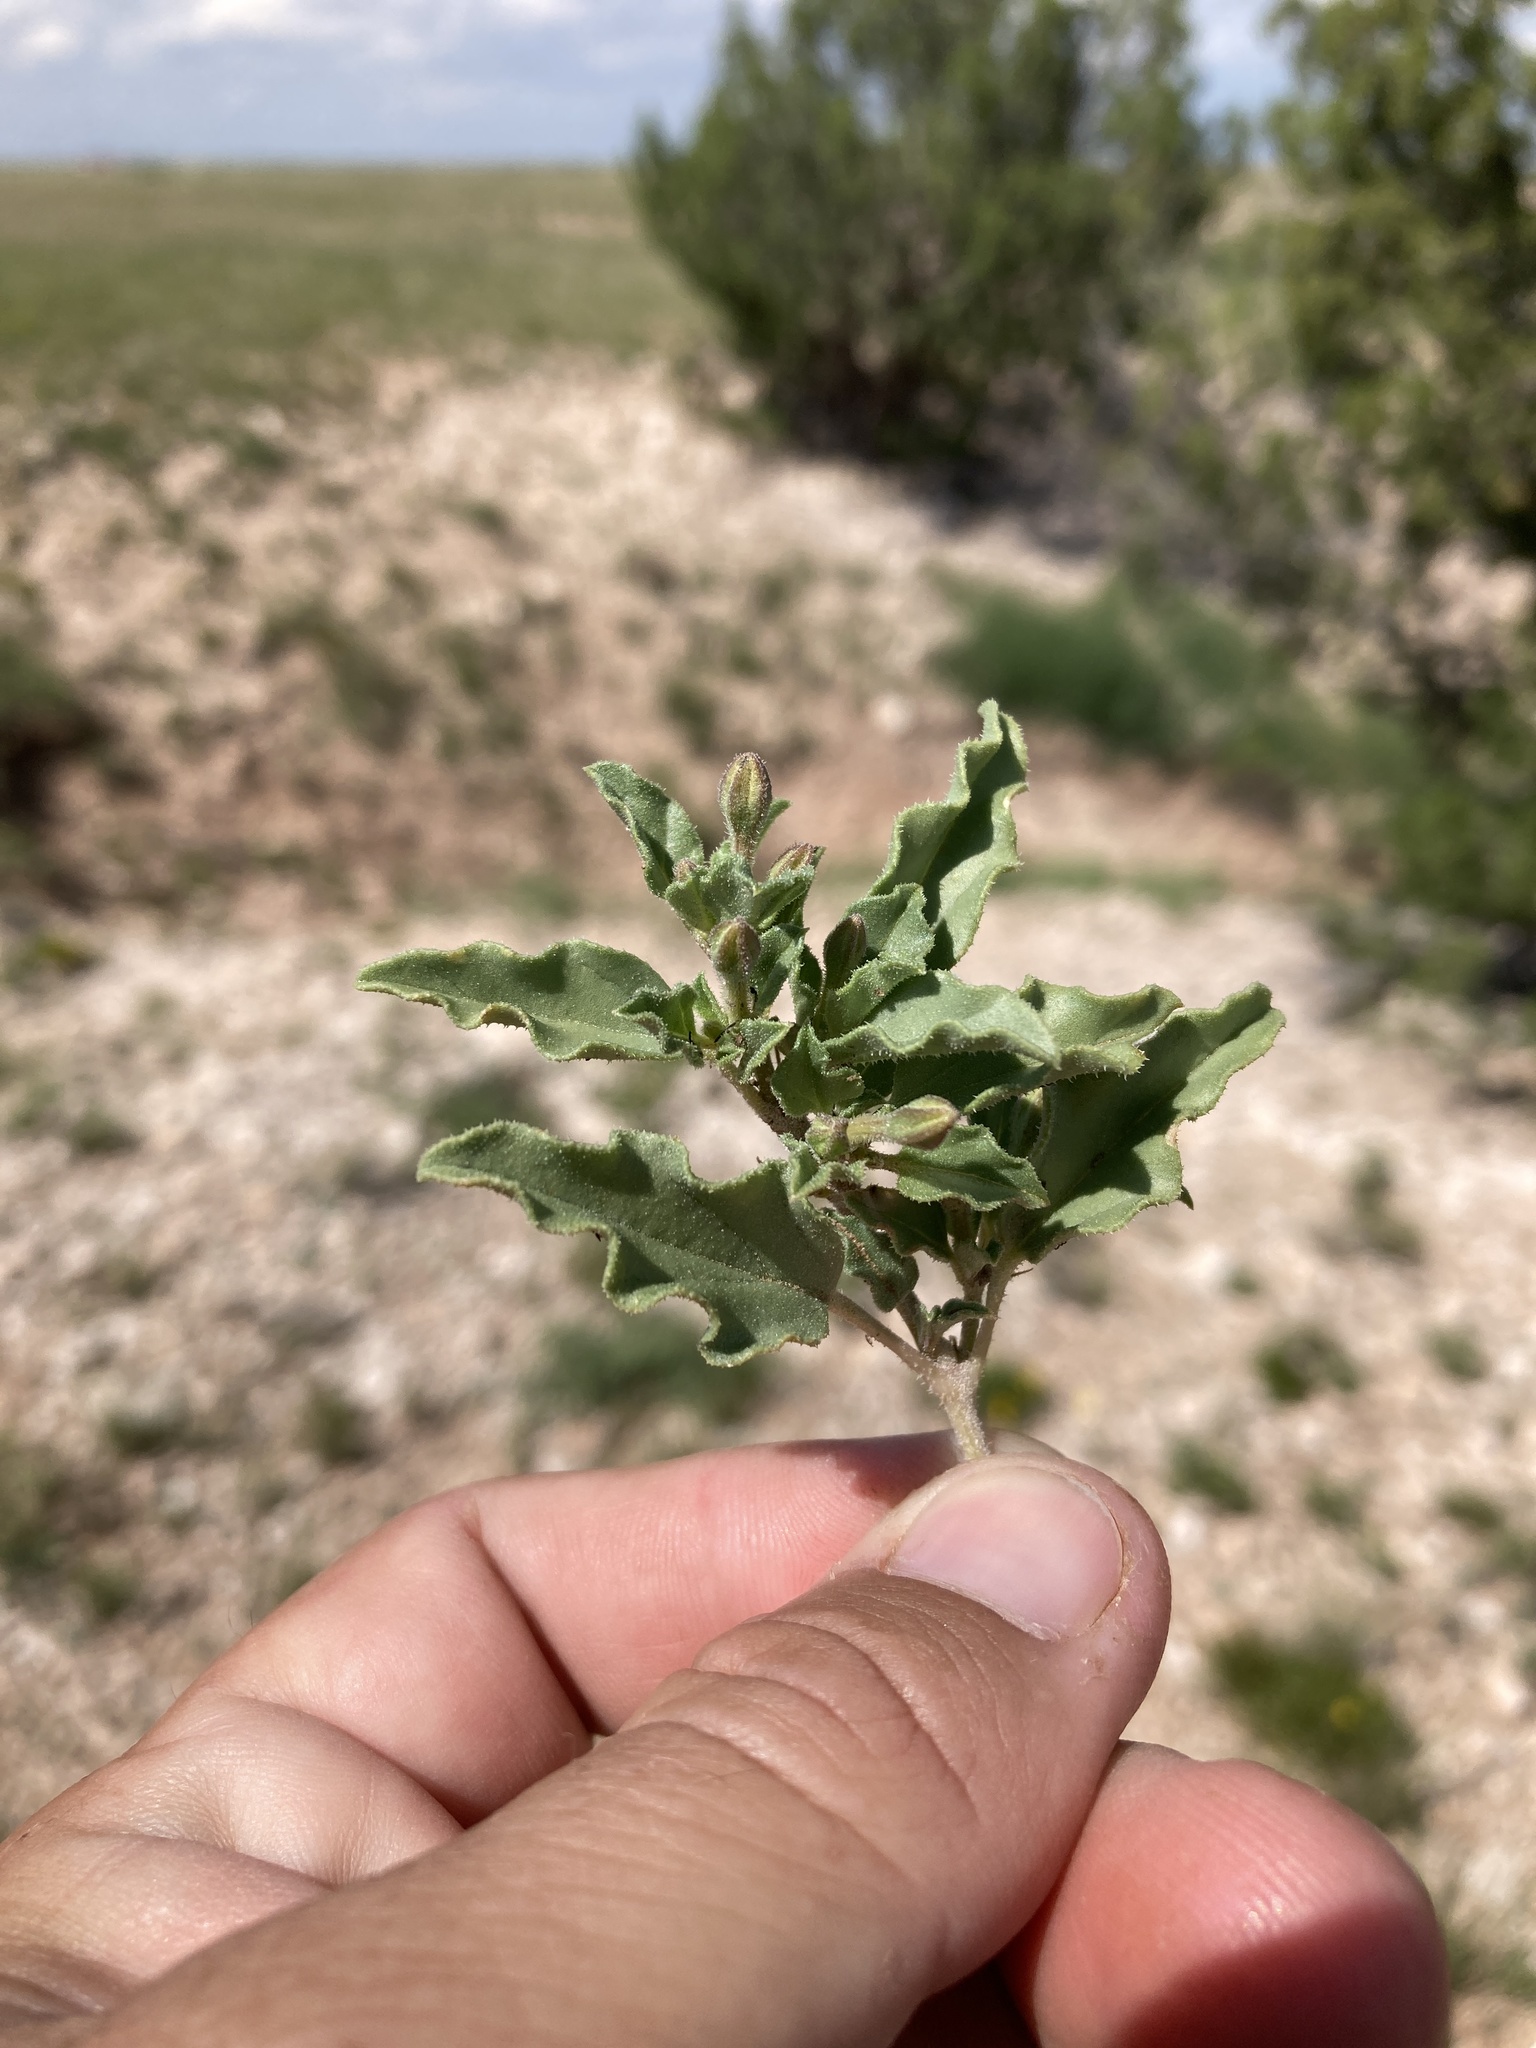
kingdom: Plantae
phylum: Tracheophyta
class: Magnoliopsida
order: Caryophyllales
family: Nyctaginaceae
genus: Acleisanthes
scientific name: Acleisanthes diffusa
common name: Spreading moonpod
